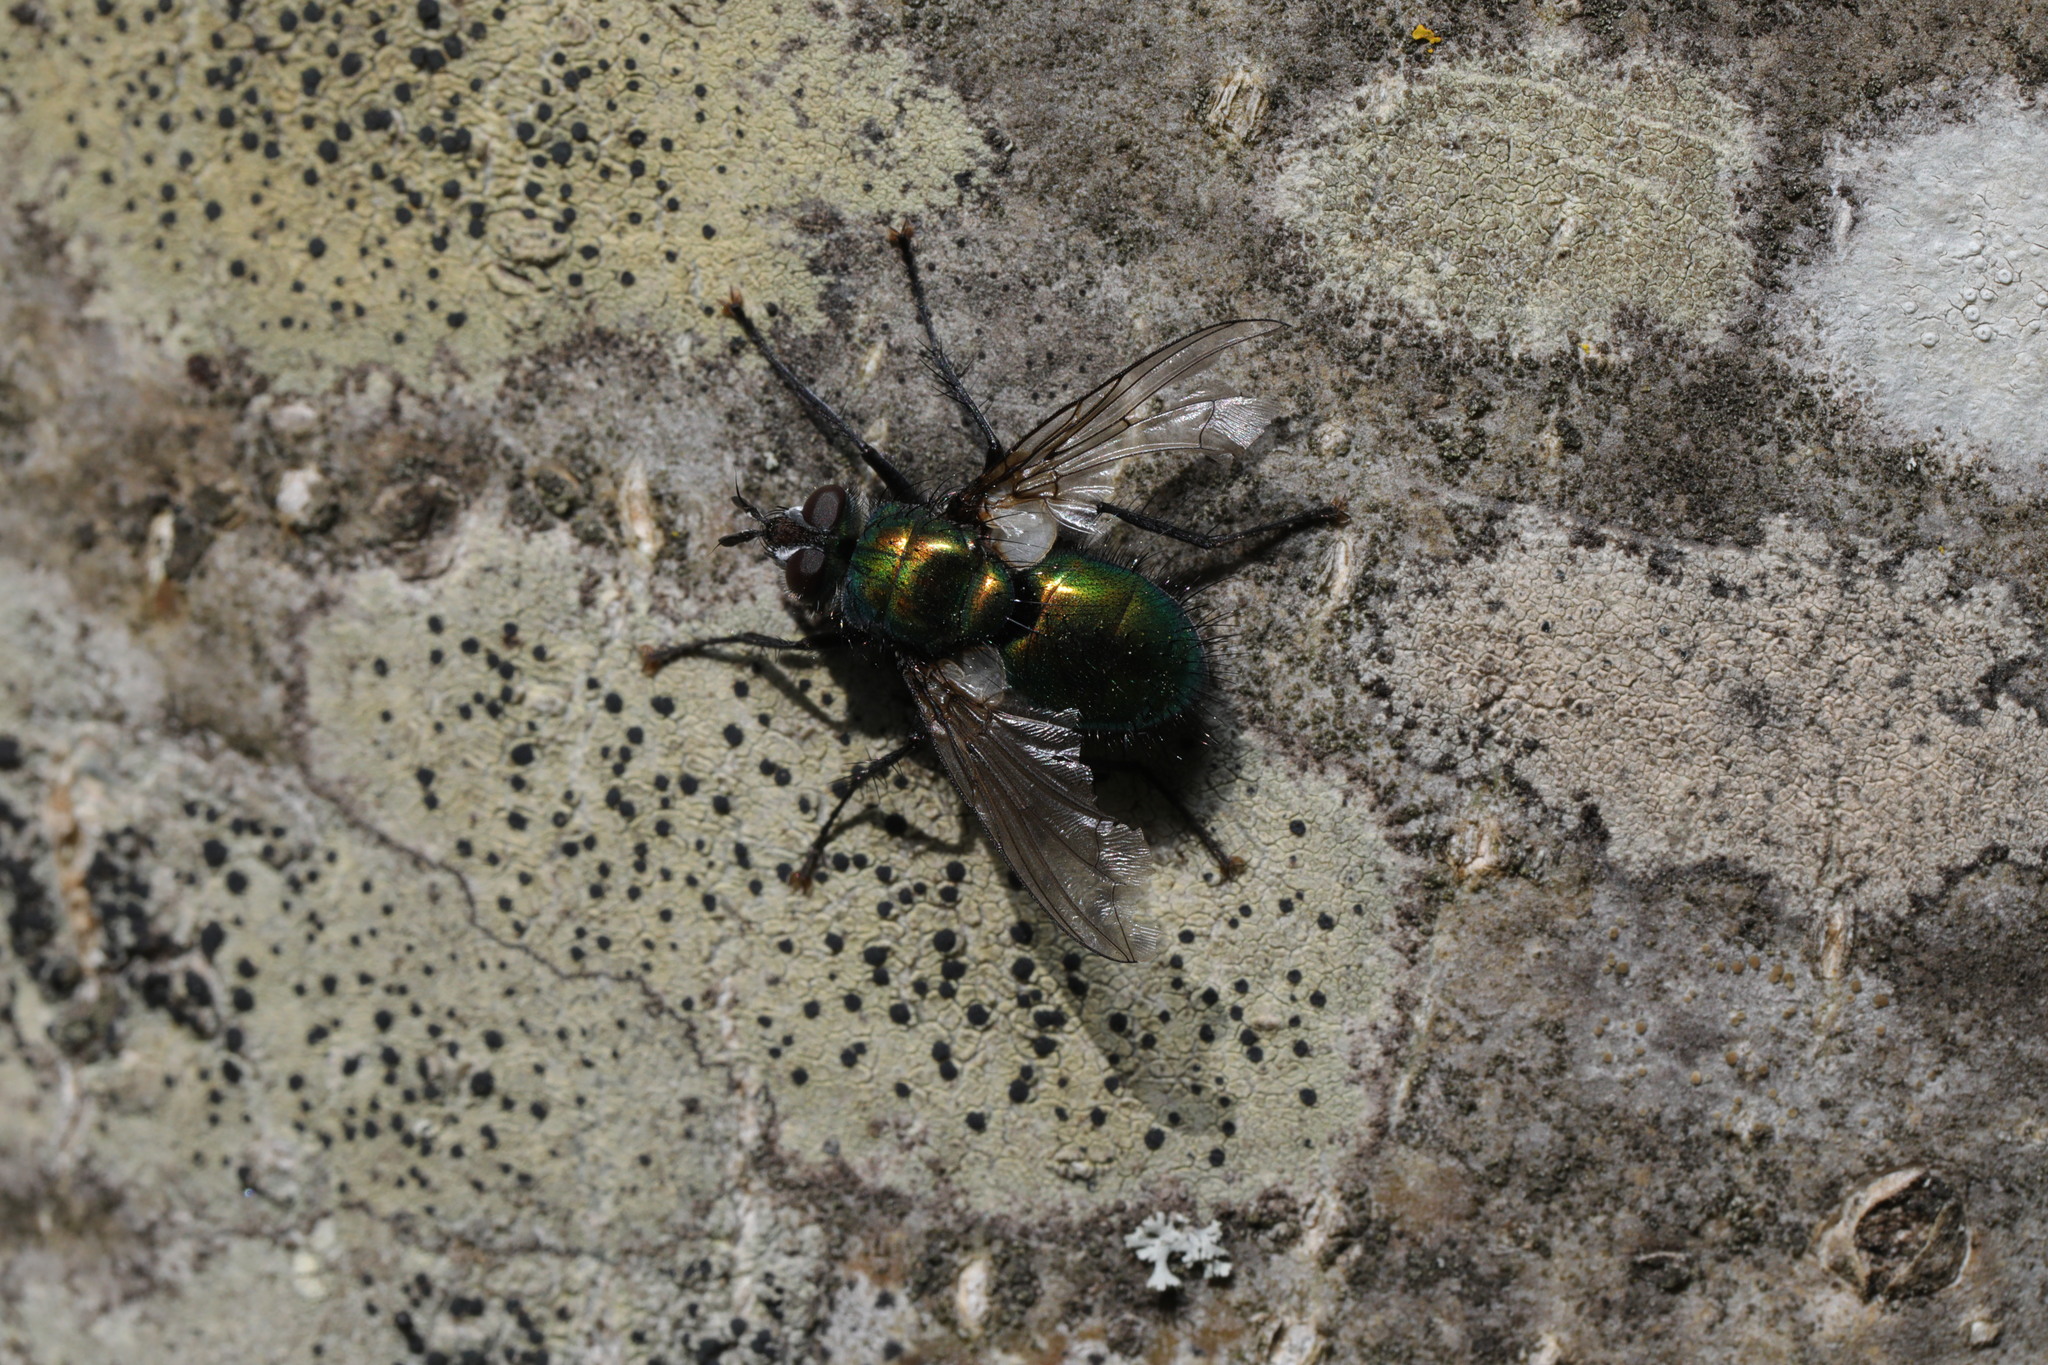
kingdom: Animalia
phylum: Arthropoda
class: Insecta
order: Diptera
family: Tachinidae
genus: Gymnocheta
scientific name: Gymnocheta viridis
